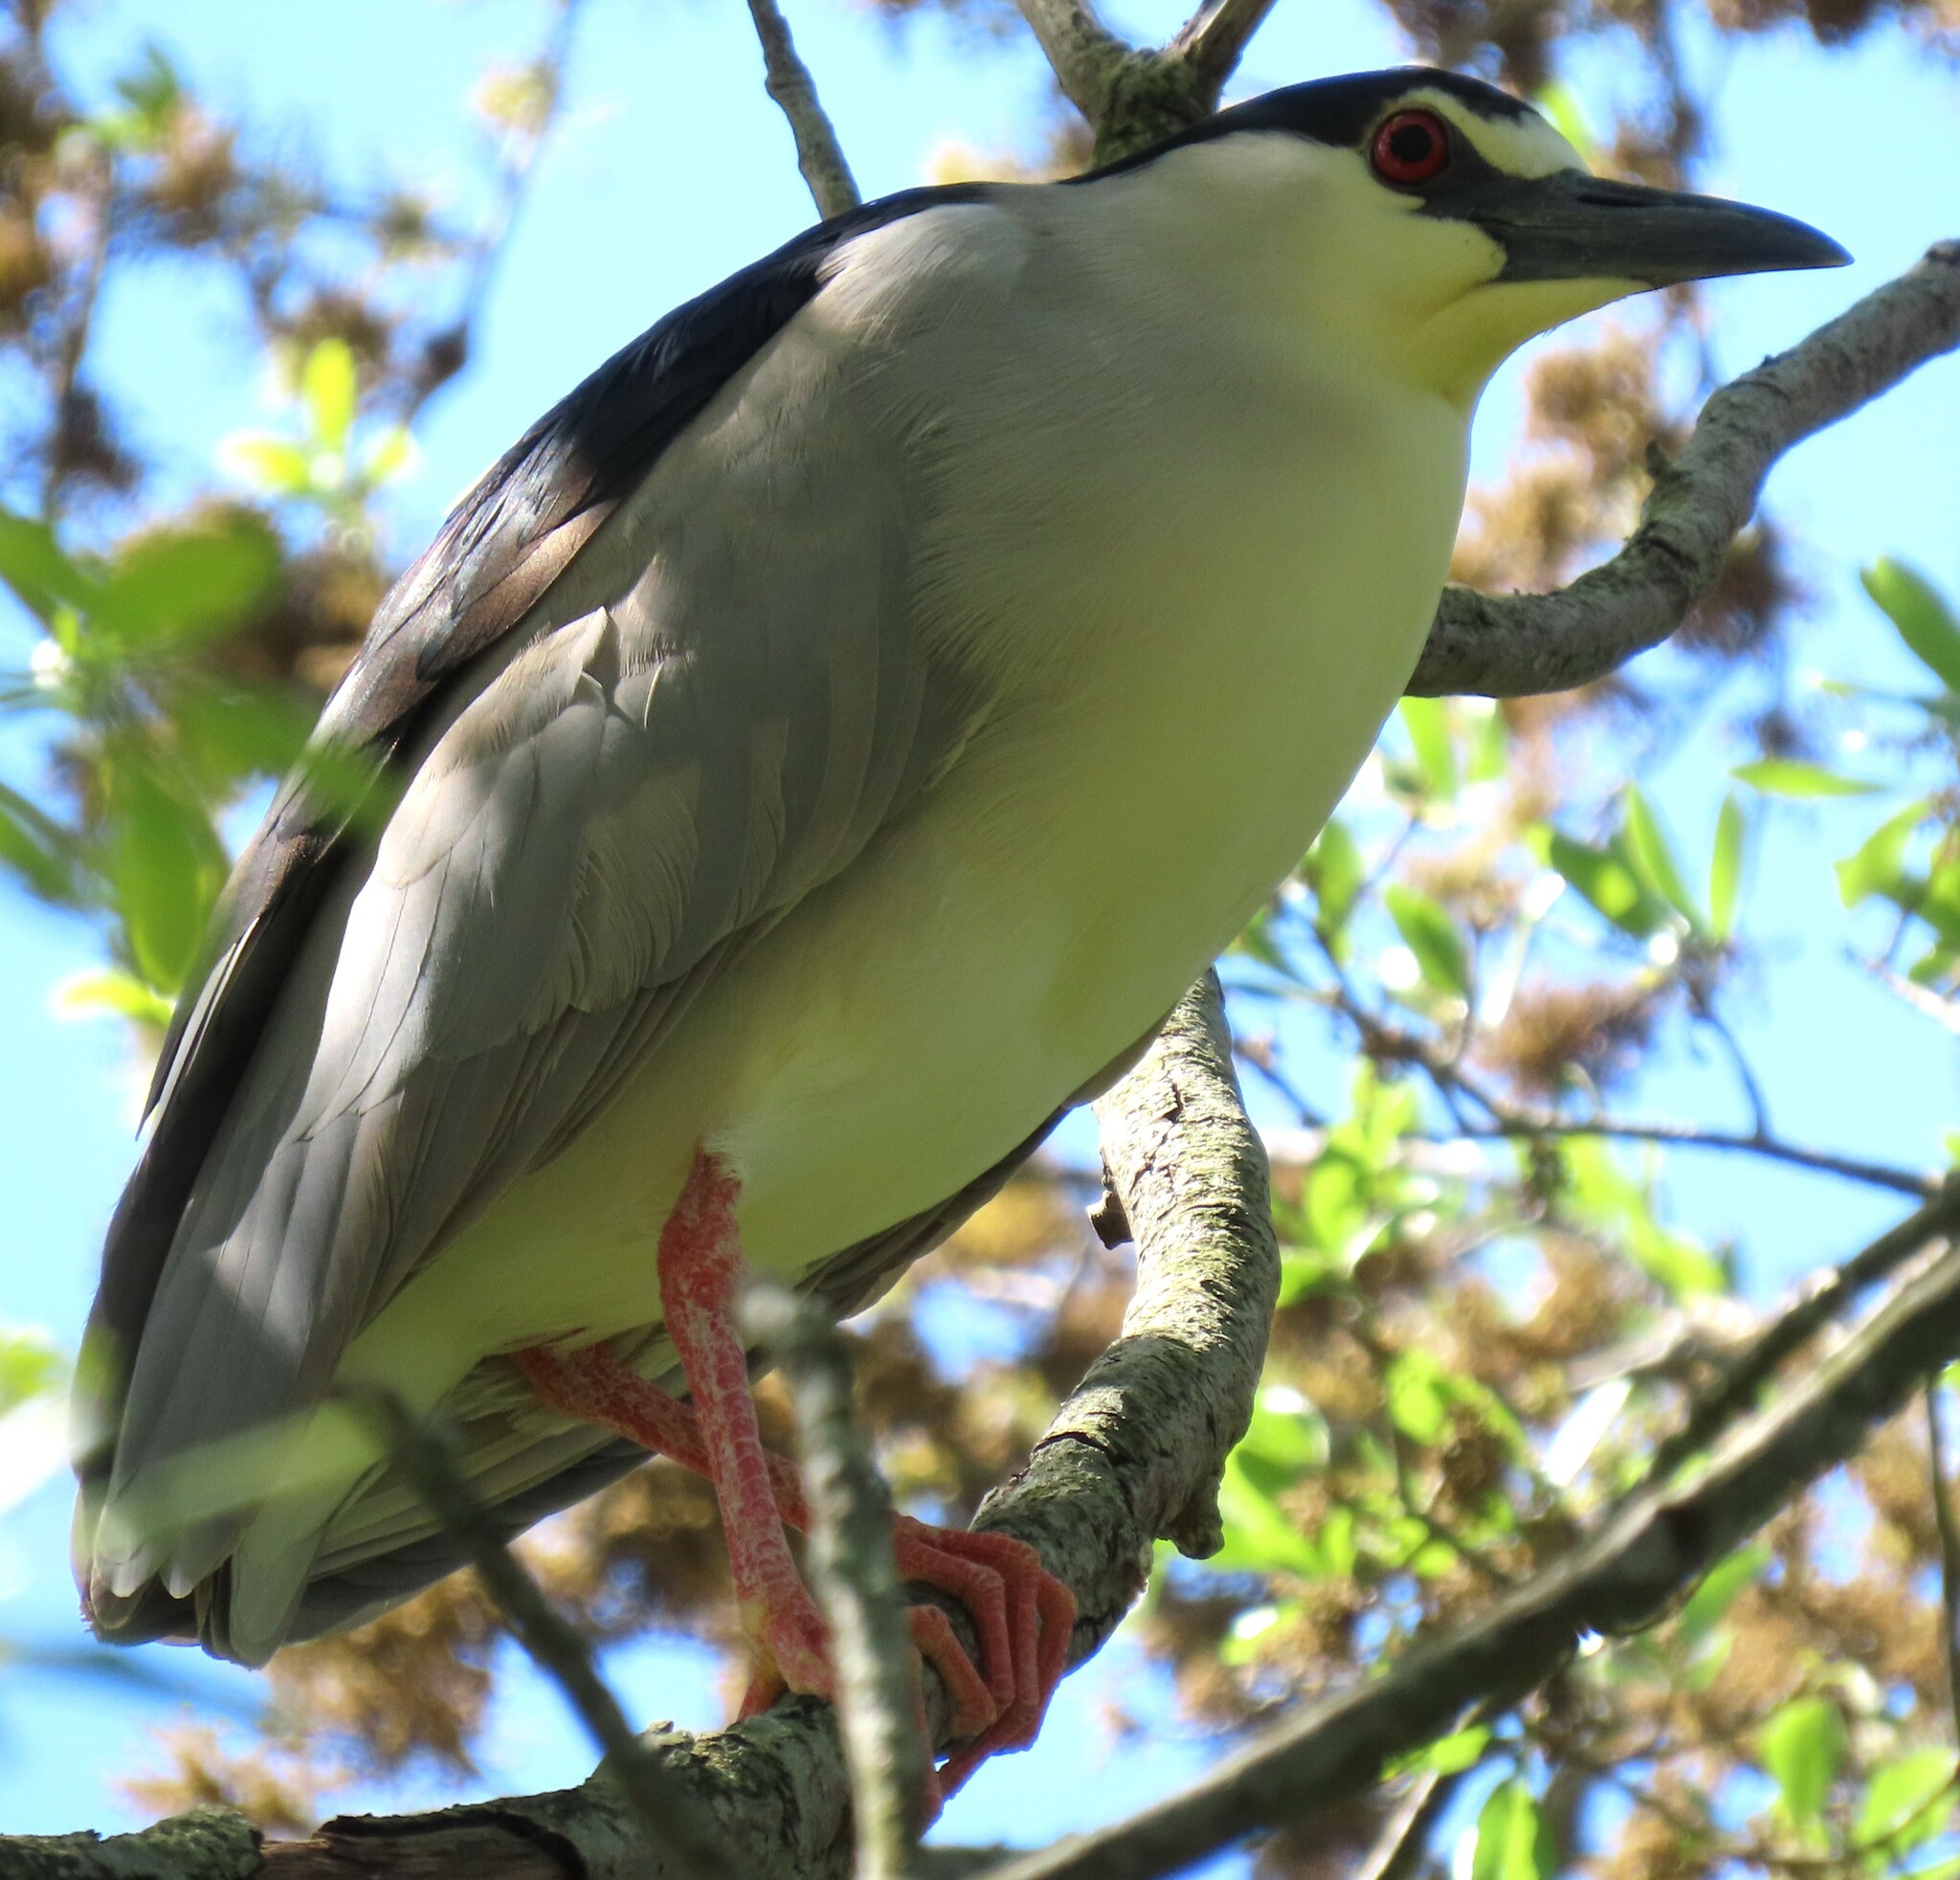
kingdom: Animalia
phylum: Chordata
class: Aves
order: Pelecaniformes
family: Ardeidae
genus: Nycticorax
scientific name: Nycticorax nycticorax
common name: Black-crowned night heron
